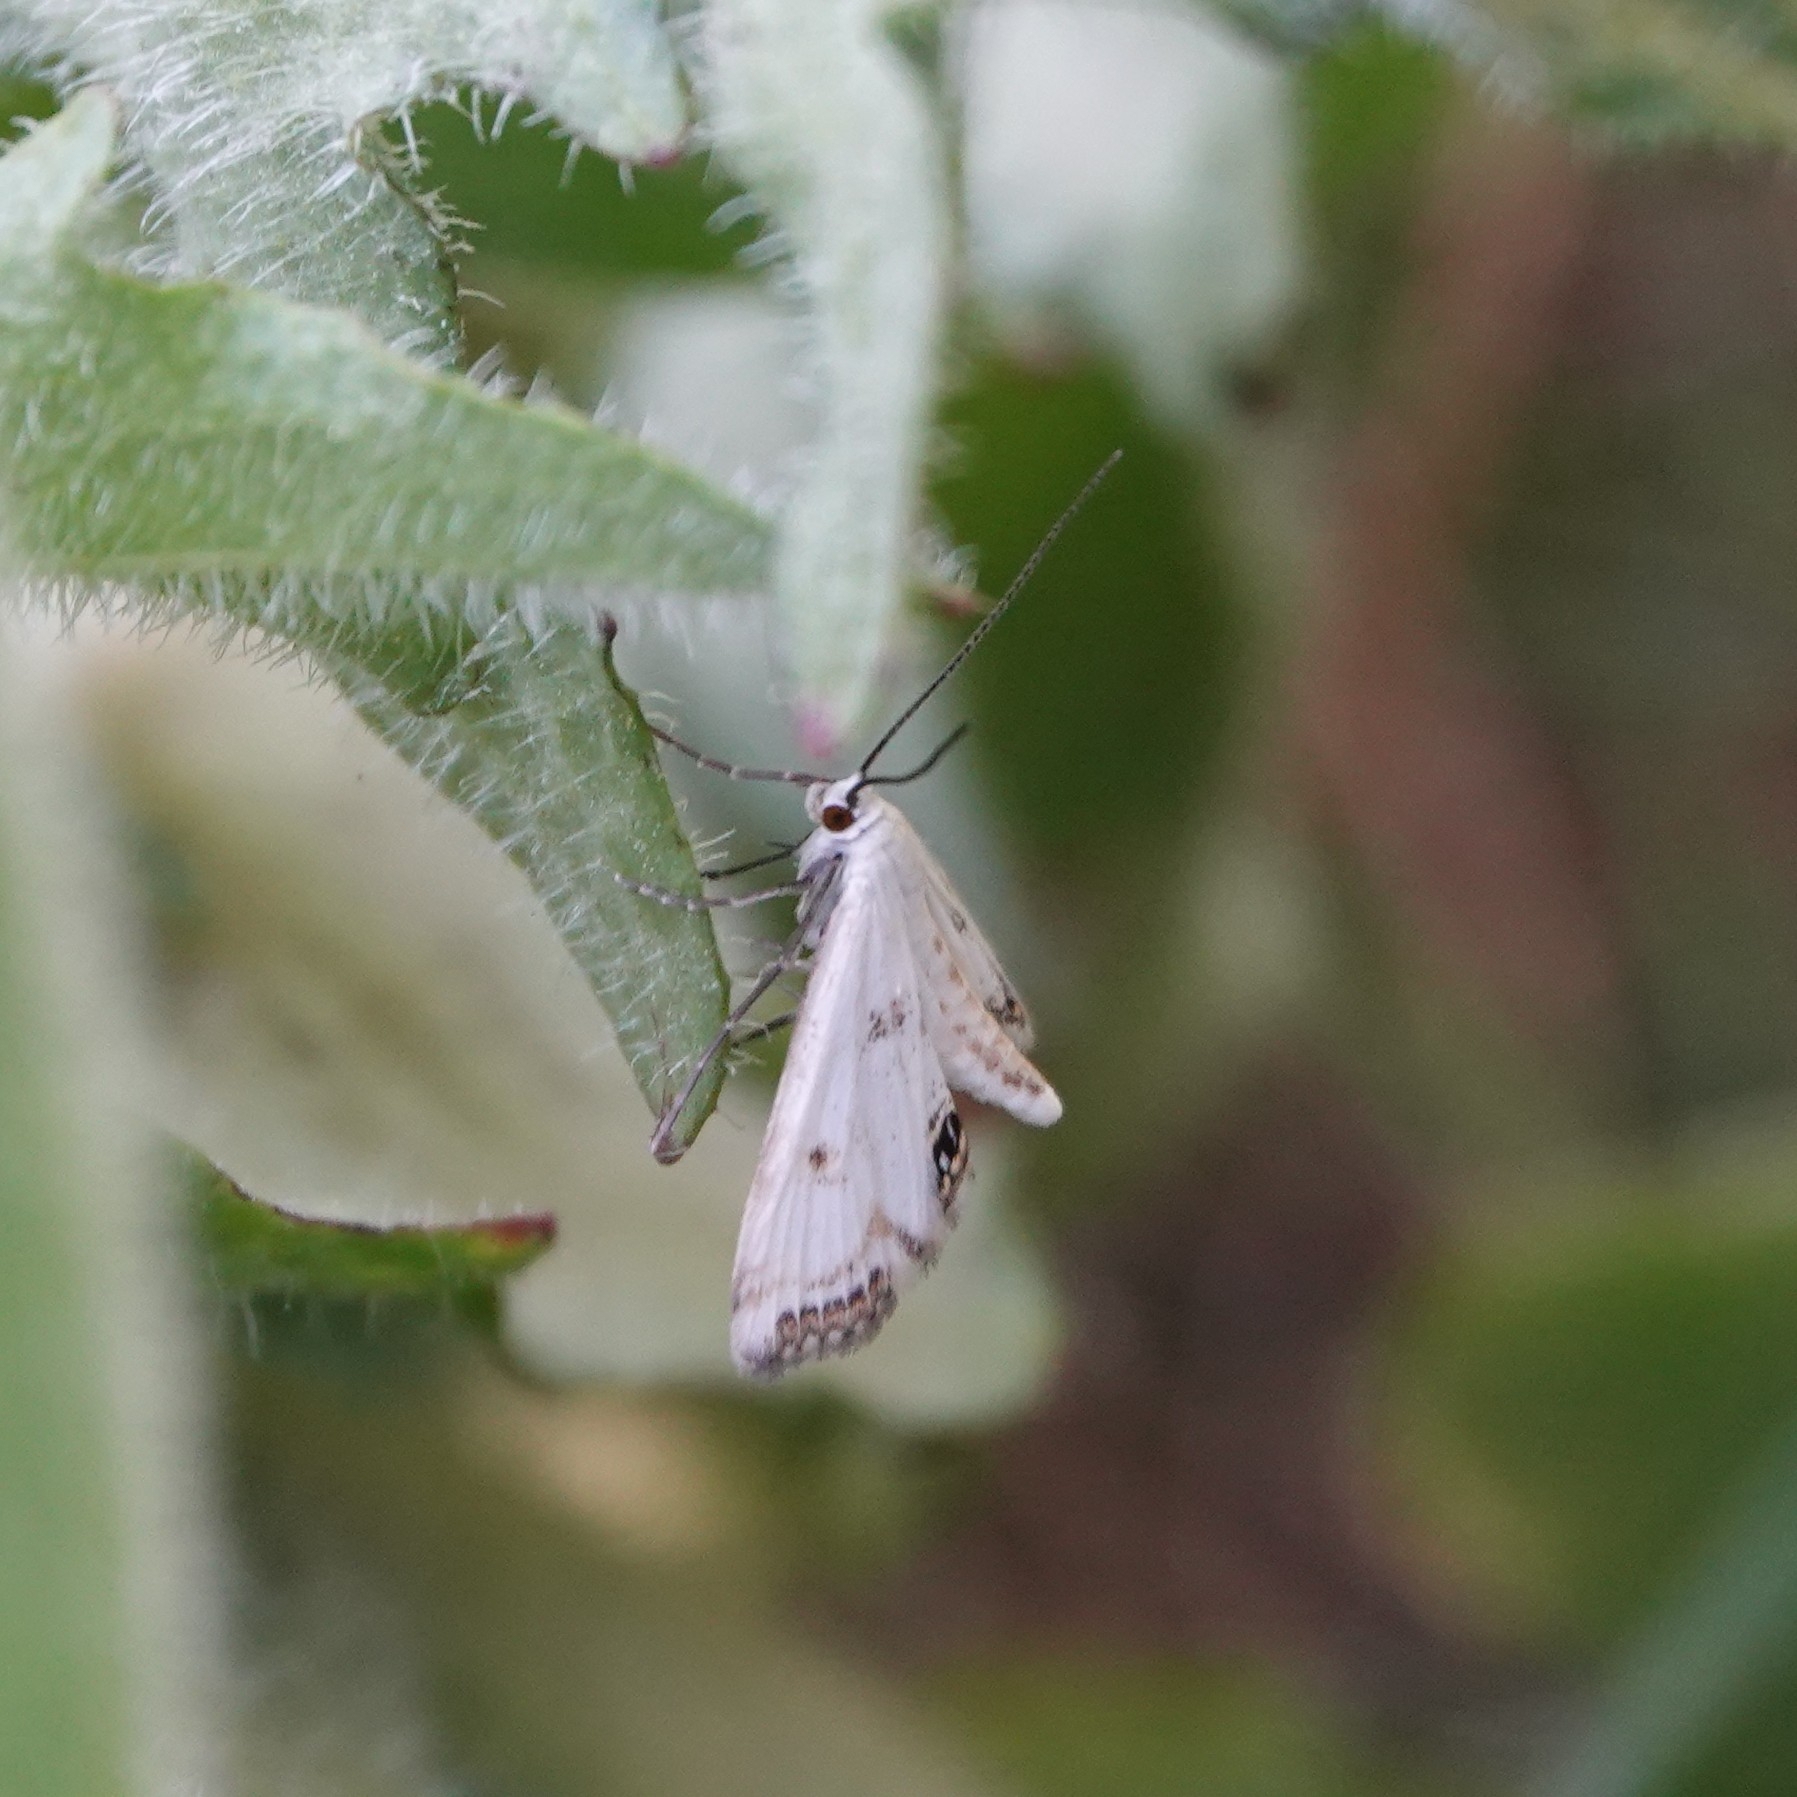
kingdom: Animalia
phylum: Arthropoda
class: Insecta
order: Lepidoptera
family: Crambidae
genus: Cataclysta
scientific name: Cataclysta lemnata
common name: Small china-mark
